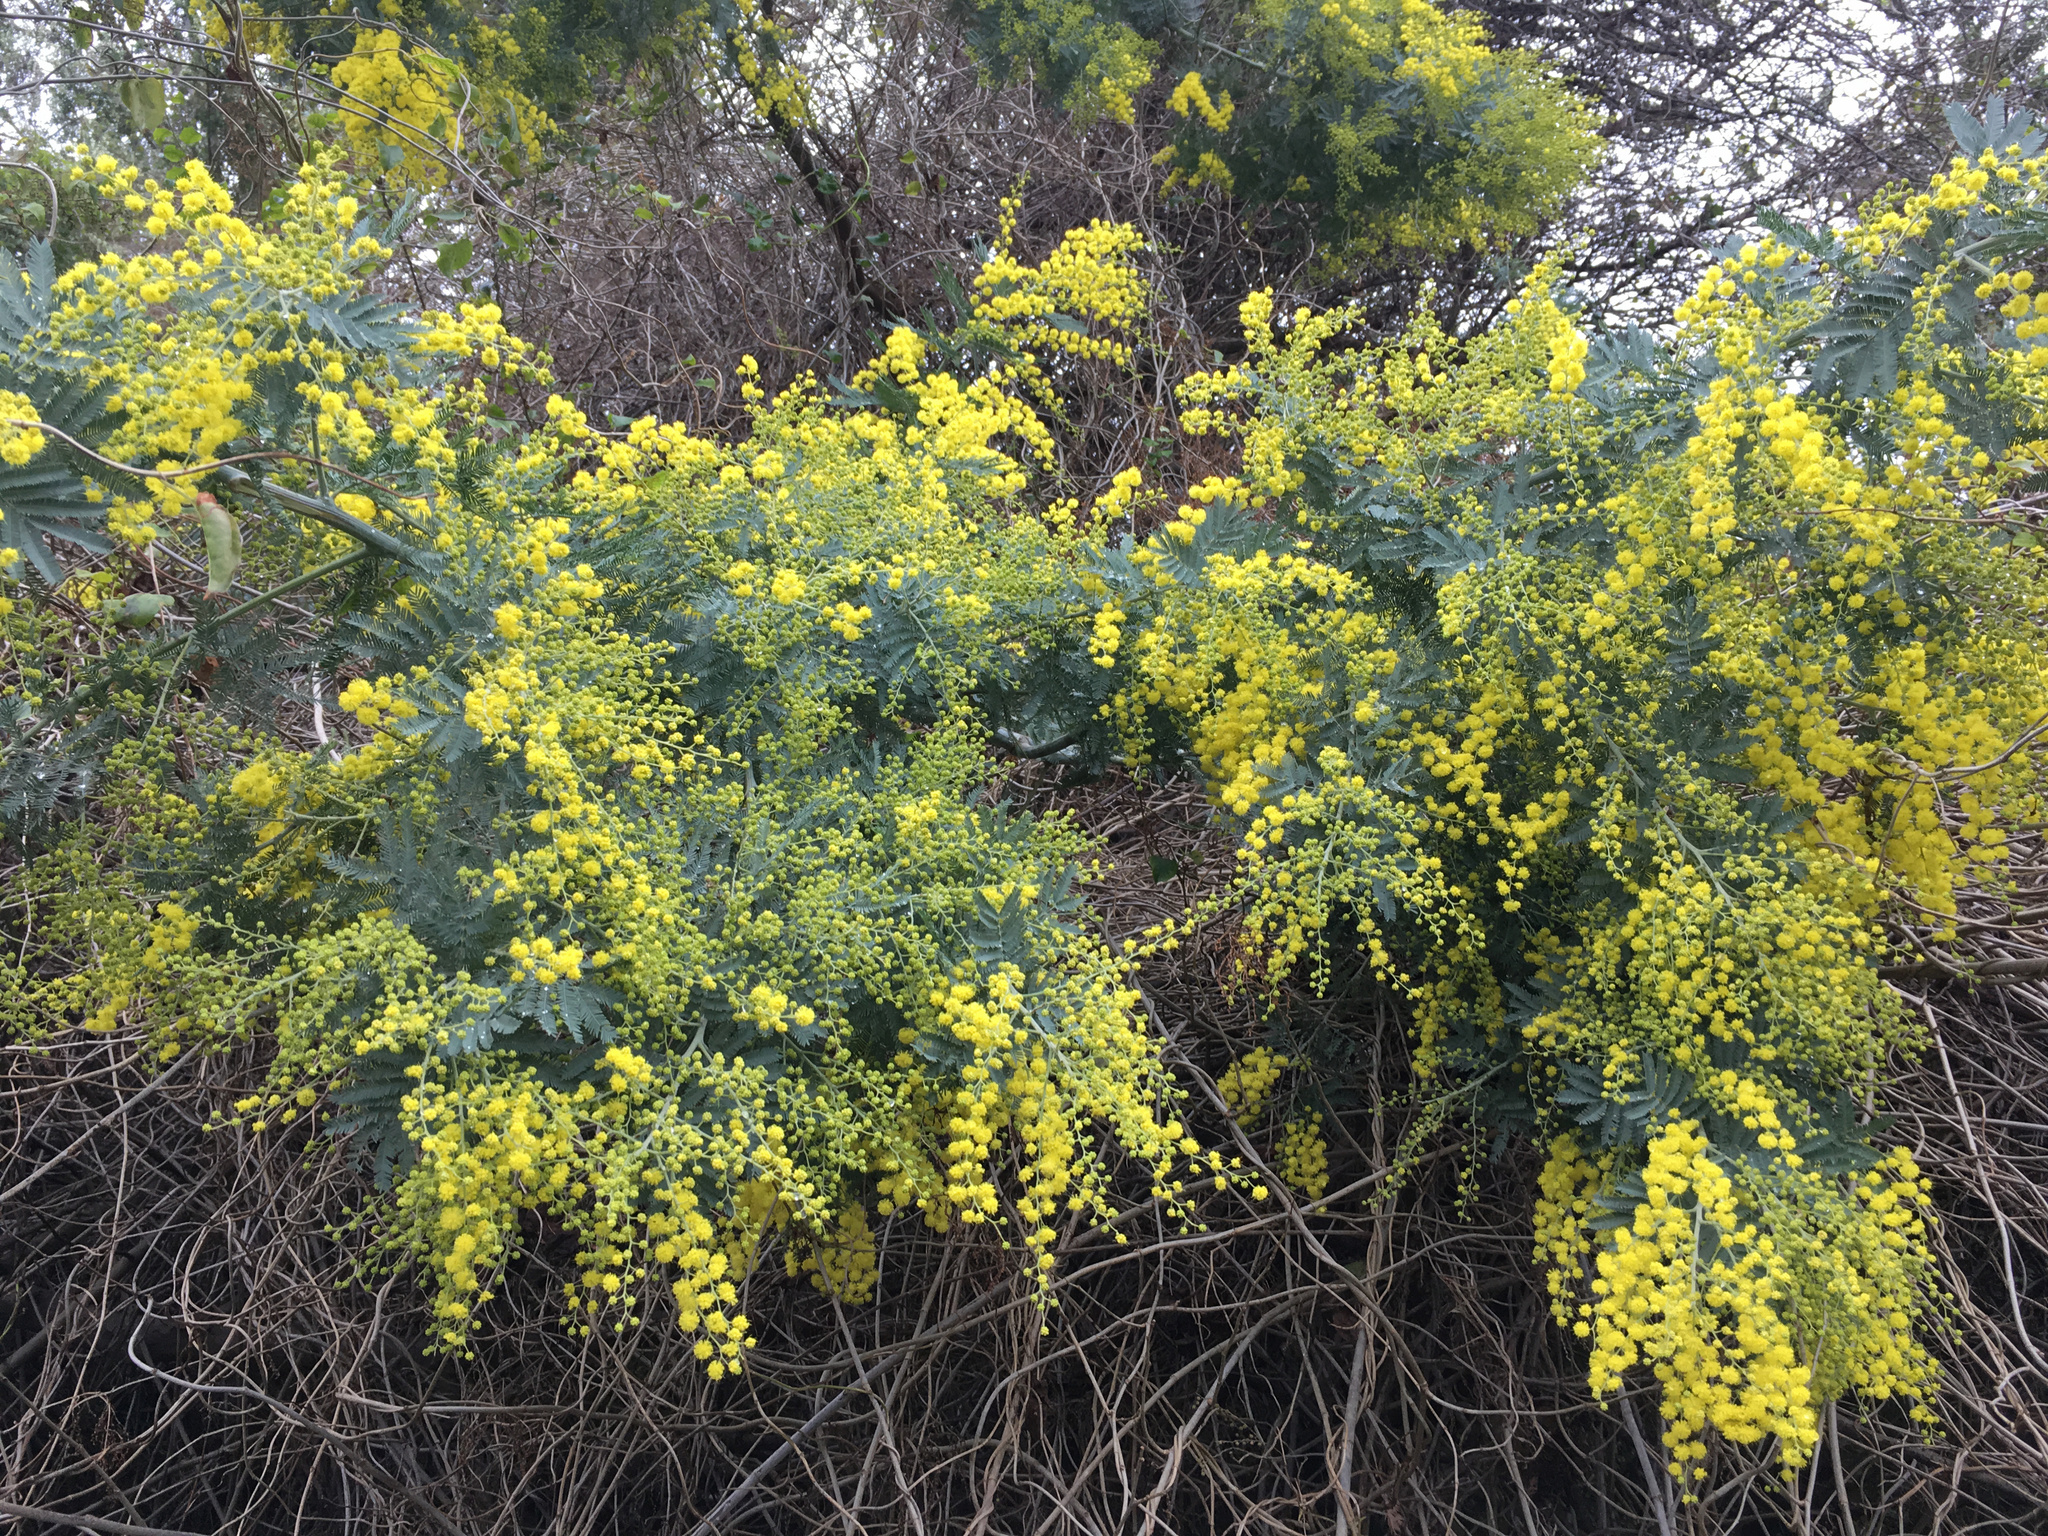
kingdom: Plantae
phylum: Tracheophyta
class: Magnoliopsida
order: Fabales
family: Fabaceae
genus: Acacia
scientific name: Acacia dealbata
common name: Silver wattle
